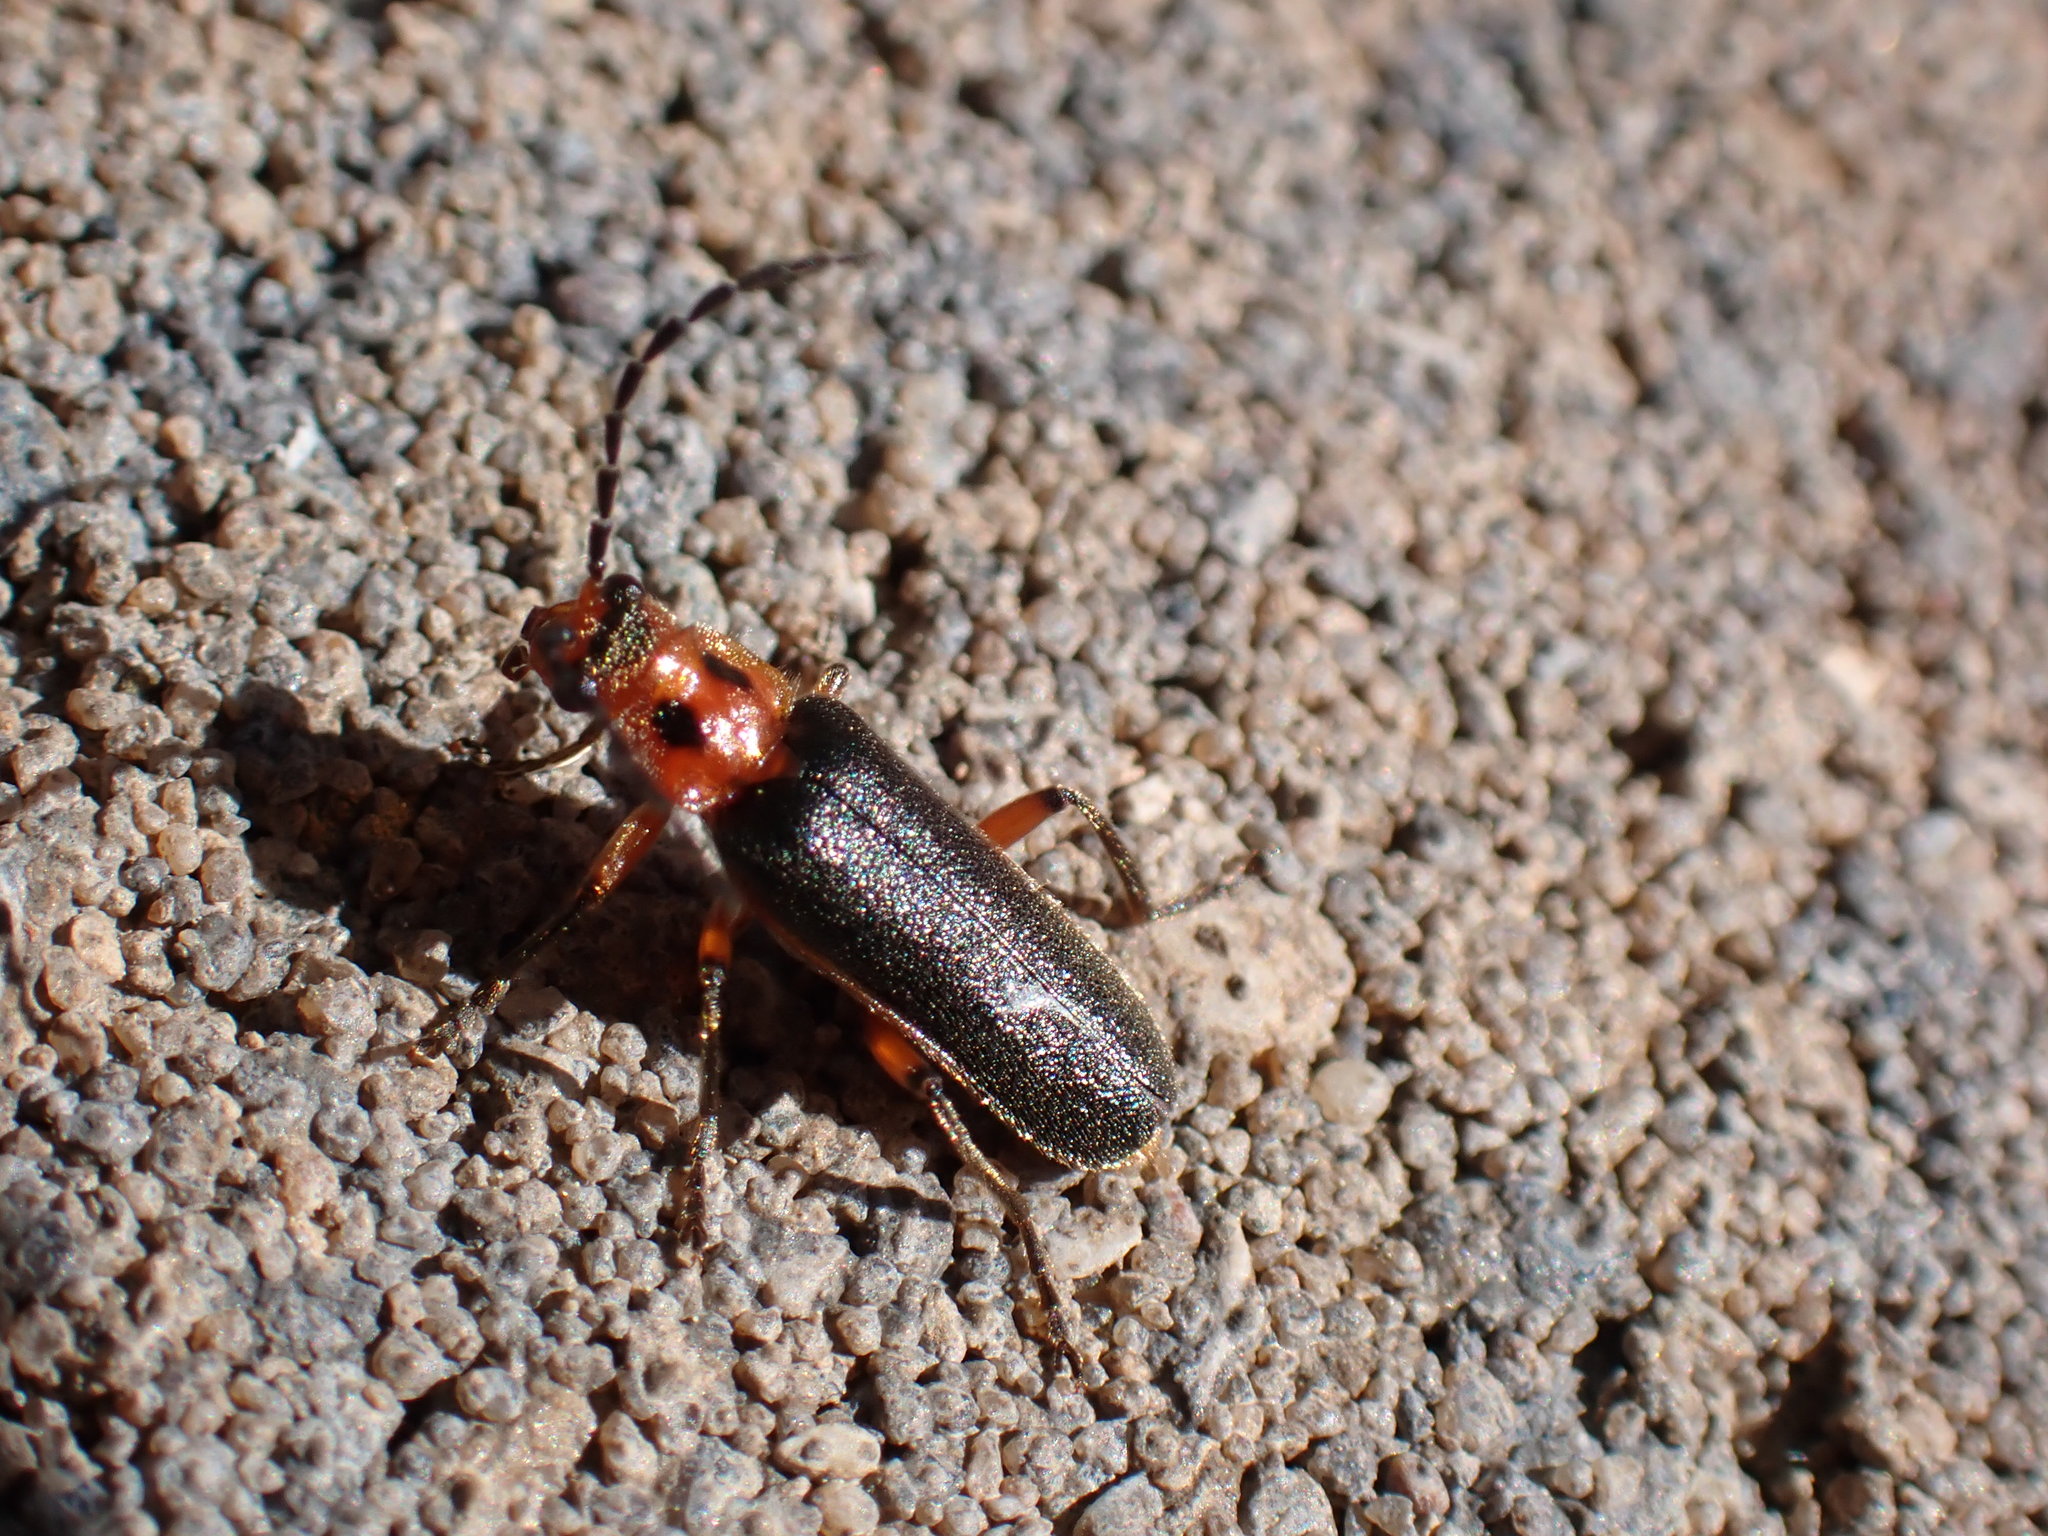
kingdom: Animalia
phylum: Arthropoda
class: Insecta
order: Coleoptera
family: Cantharidae
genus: Atalantycha
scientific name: Atalantycha bilineata
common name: Two-lined leatherwing
